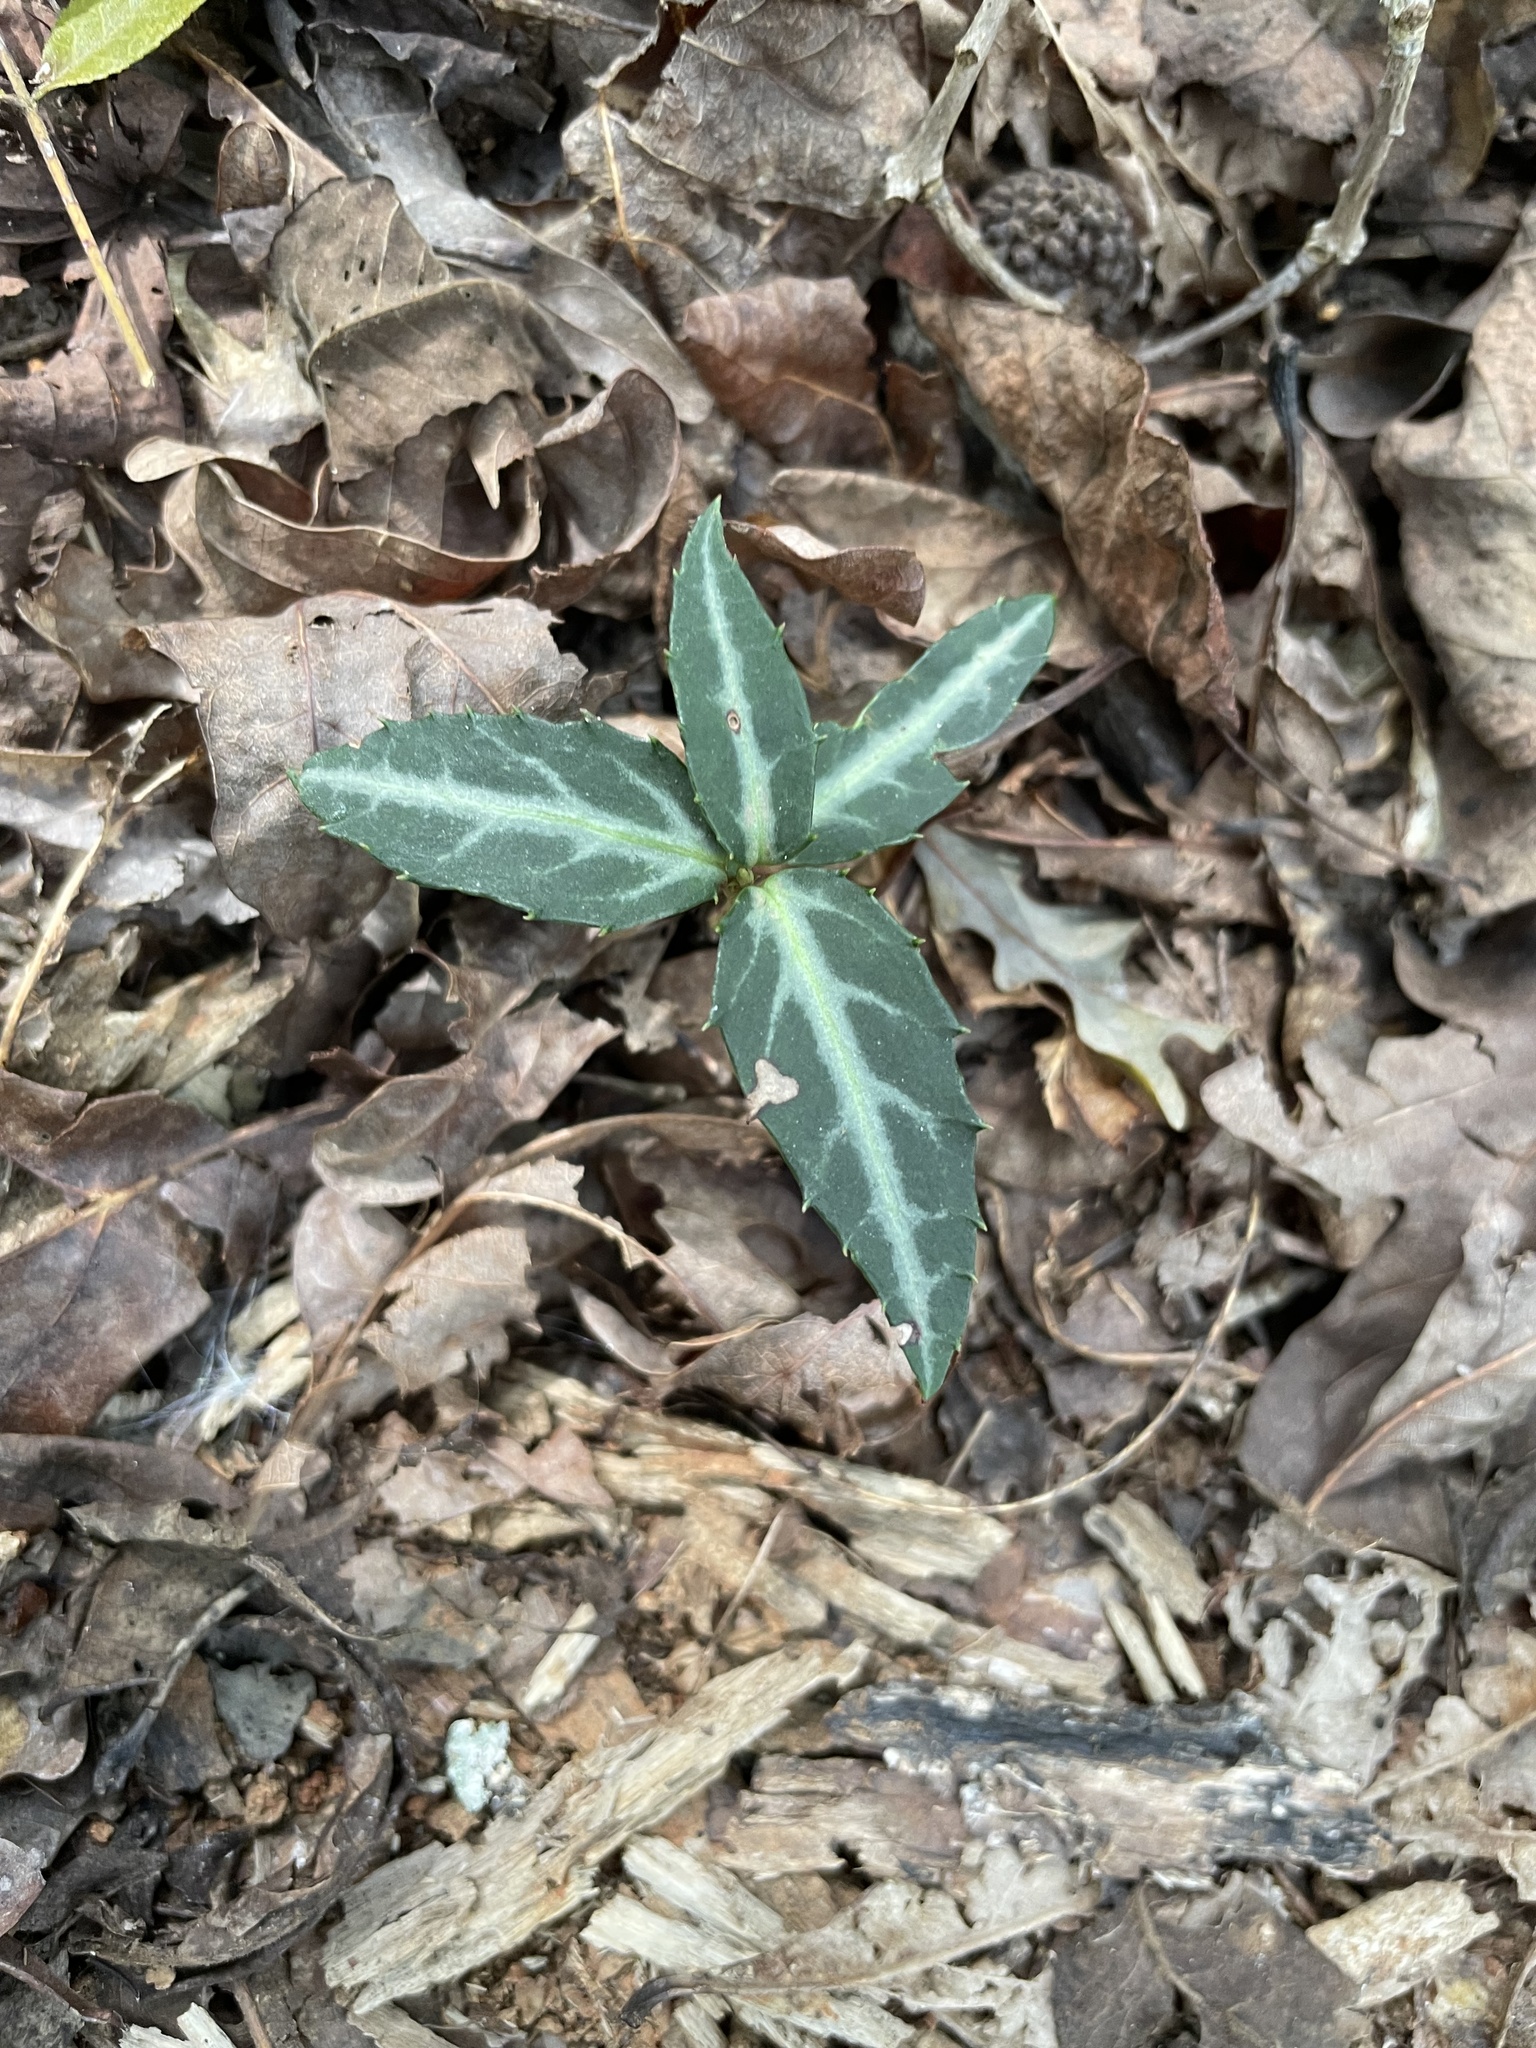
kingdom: Plantae
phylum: Tracheophyta
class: Magnoliopsida
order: Ericales
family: Ericaceae
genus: Chimaphila
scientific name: Chimaphila maculata
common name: Spotted pipsissewa
